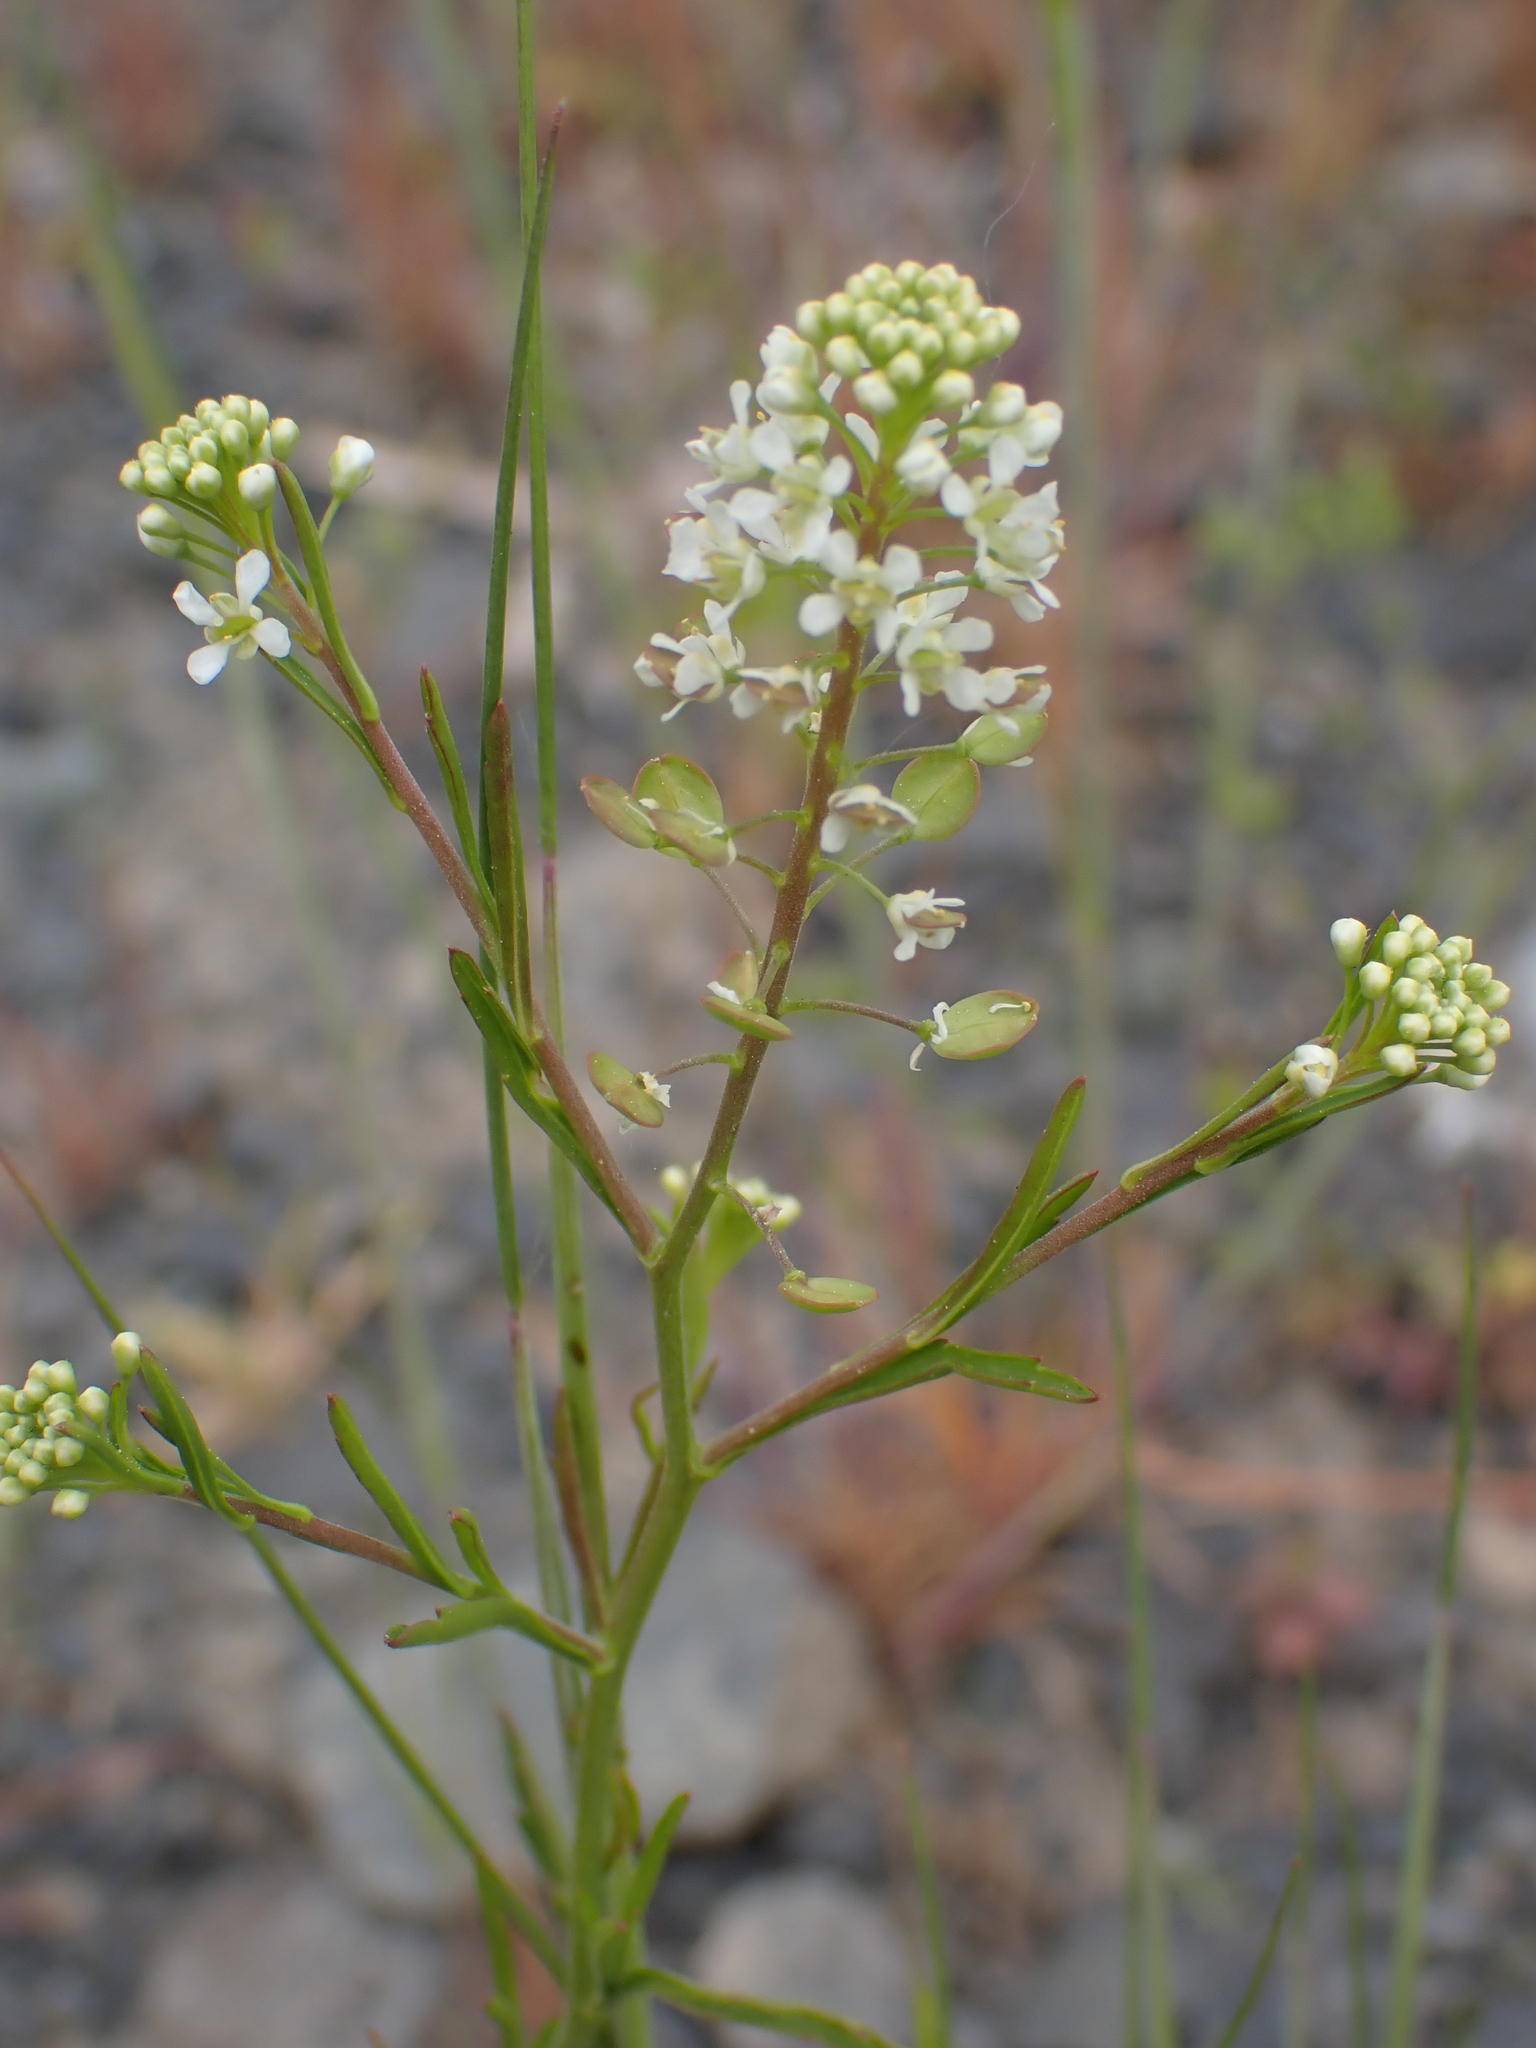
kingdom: Plantae
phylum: Tracheophyta
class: Magnoliopsida
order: Brassicales
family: Brassicaceae
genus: Lepidium
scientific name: Lepidium virginicum
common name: Least pepperwort
